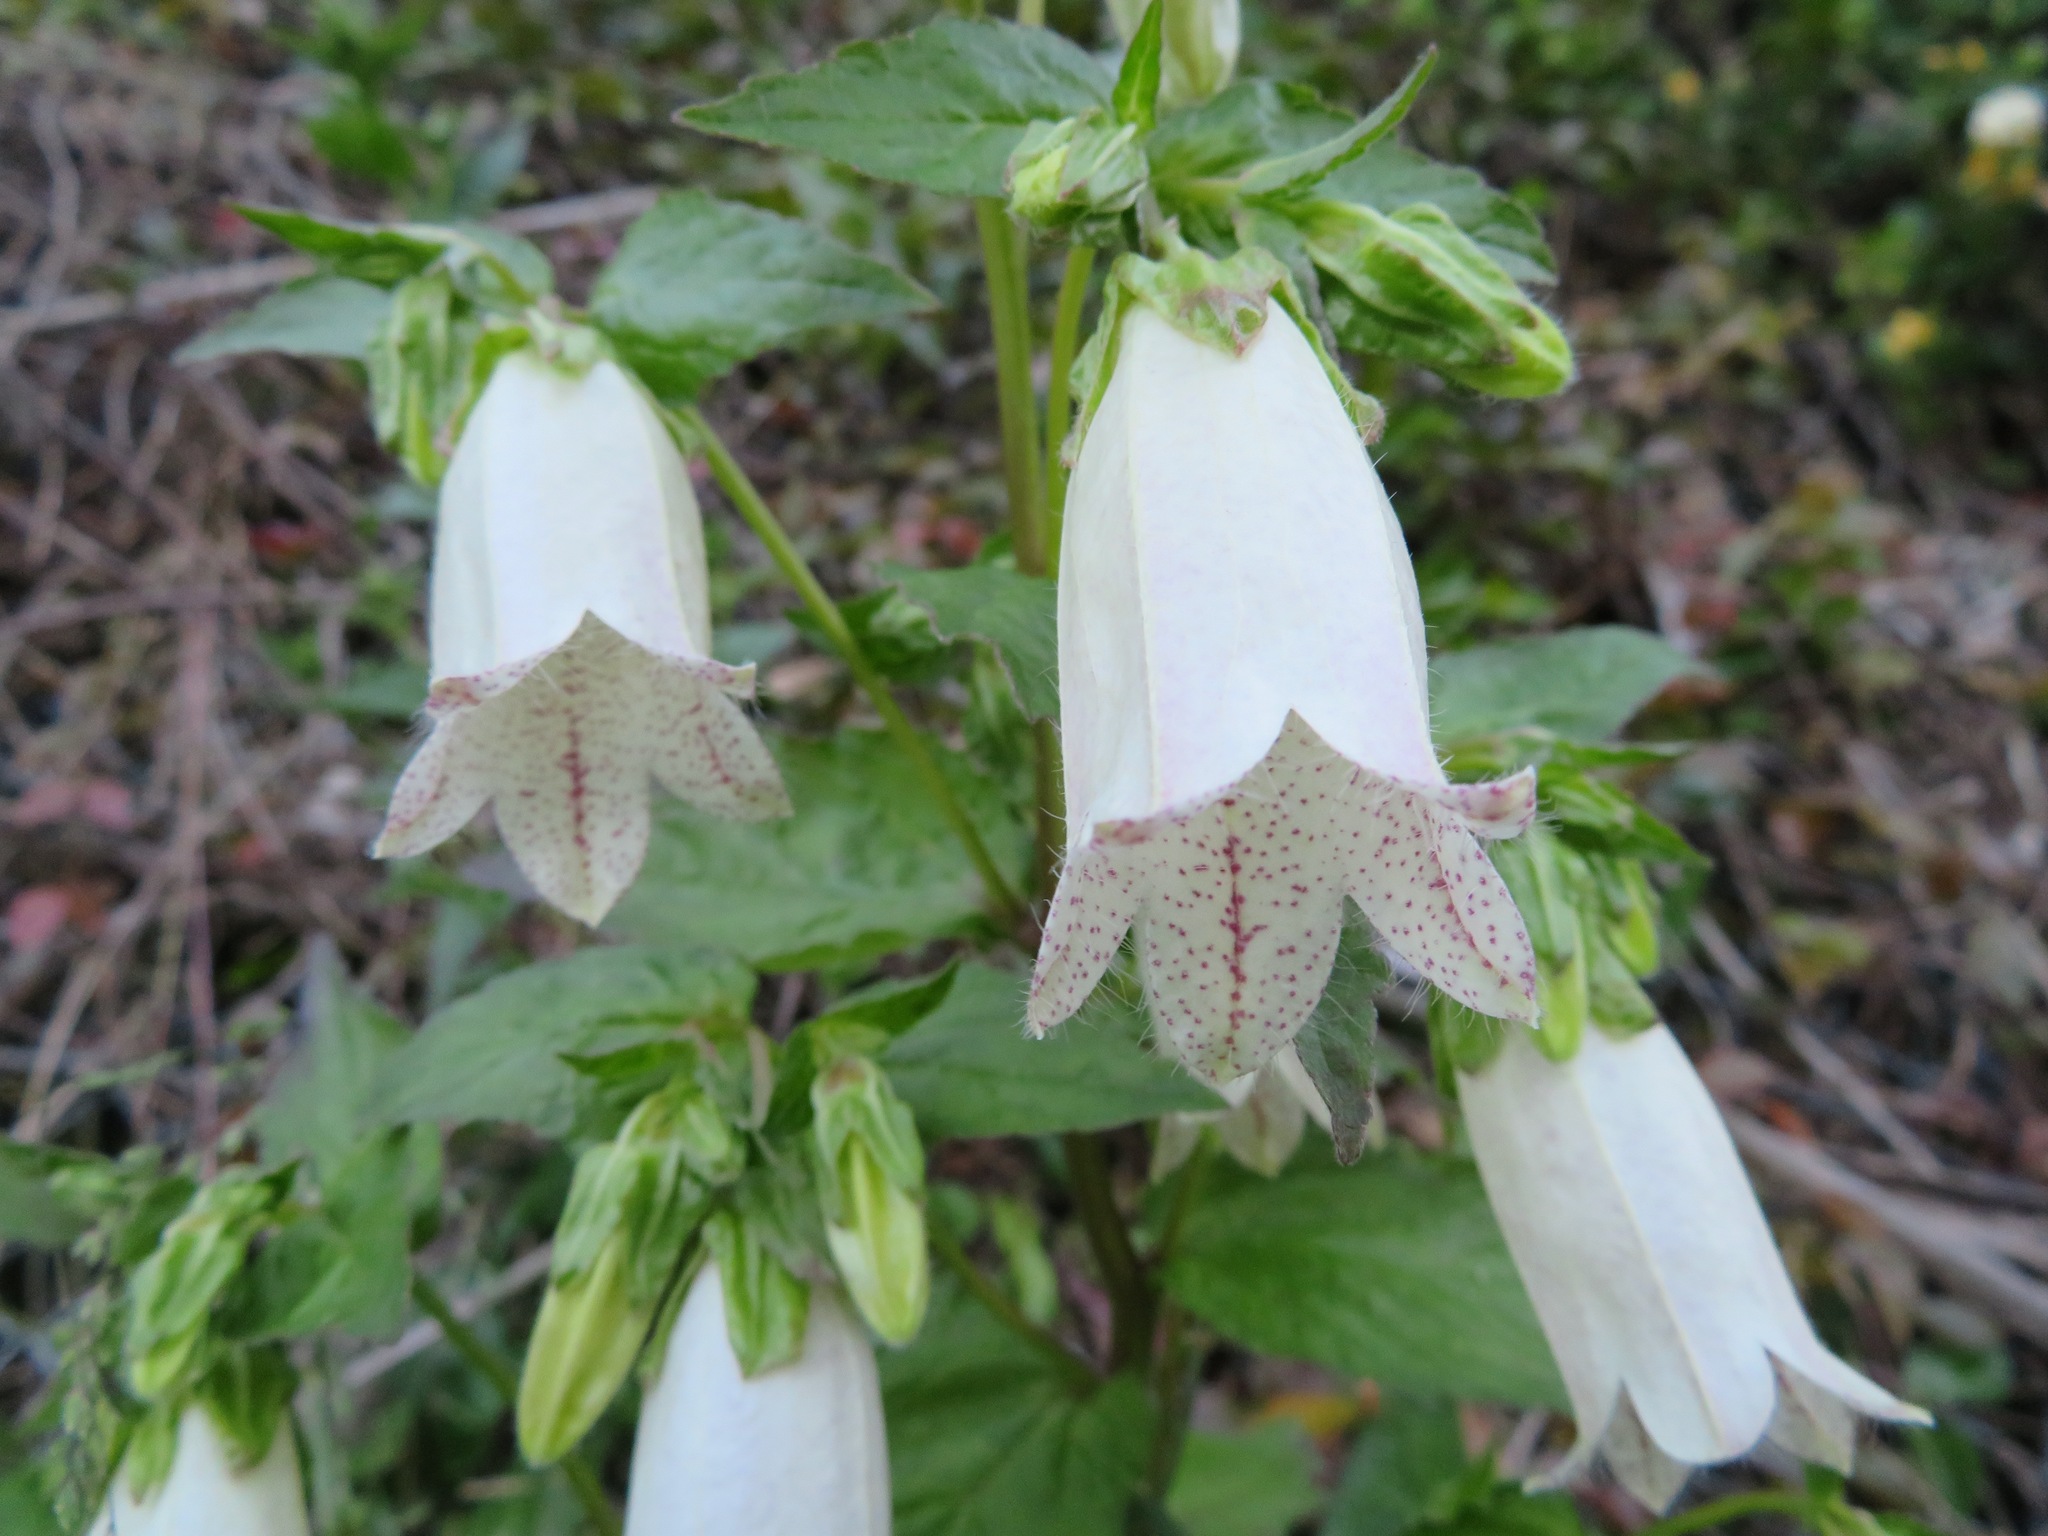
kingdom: Plantae
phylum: Tracheophyta
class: Magnoliopsida
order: Asterales
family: Campanulaceae
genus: Campanula
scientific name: Campanula punctata
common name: Spotted bellflower
